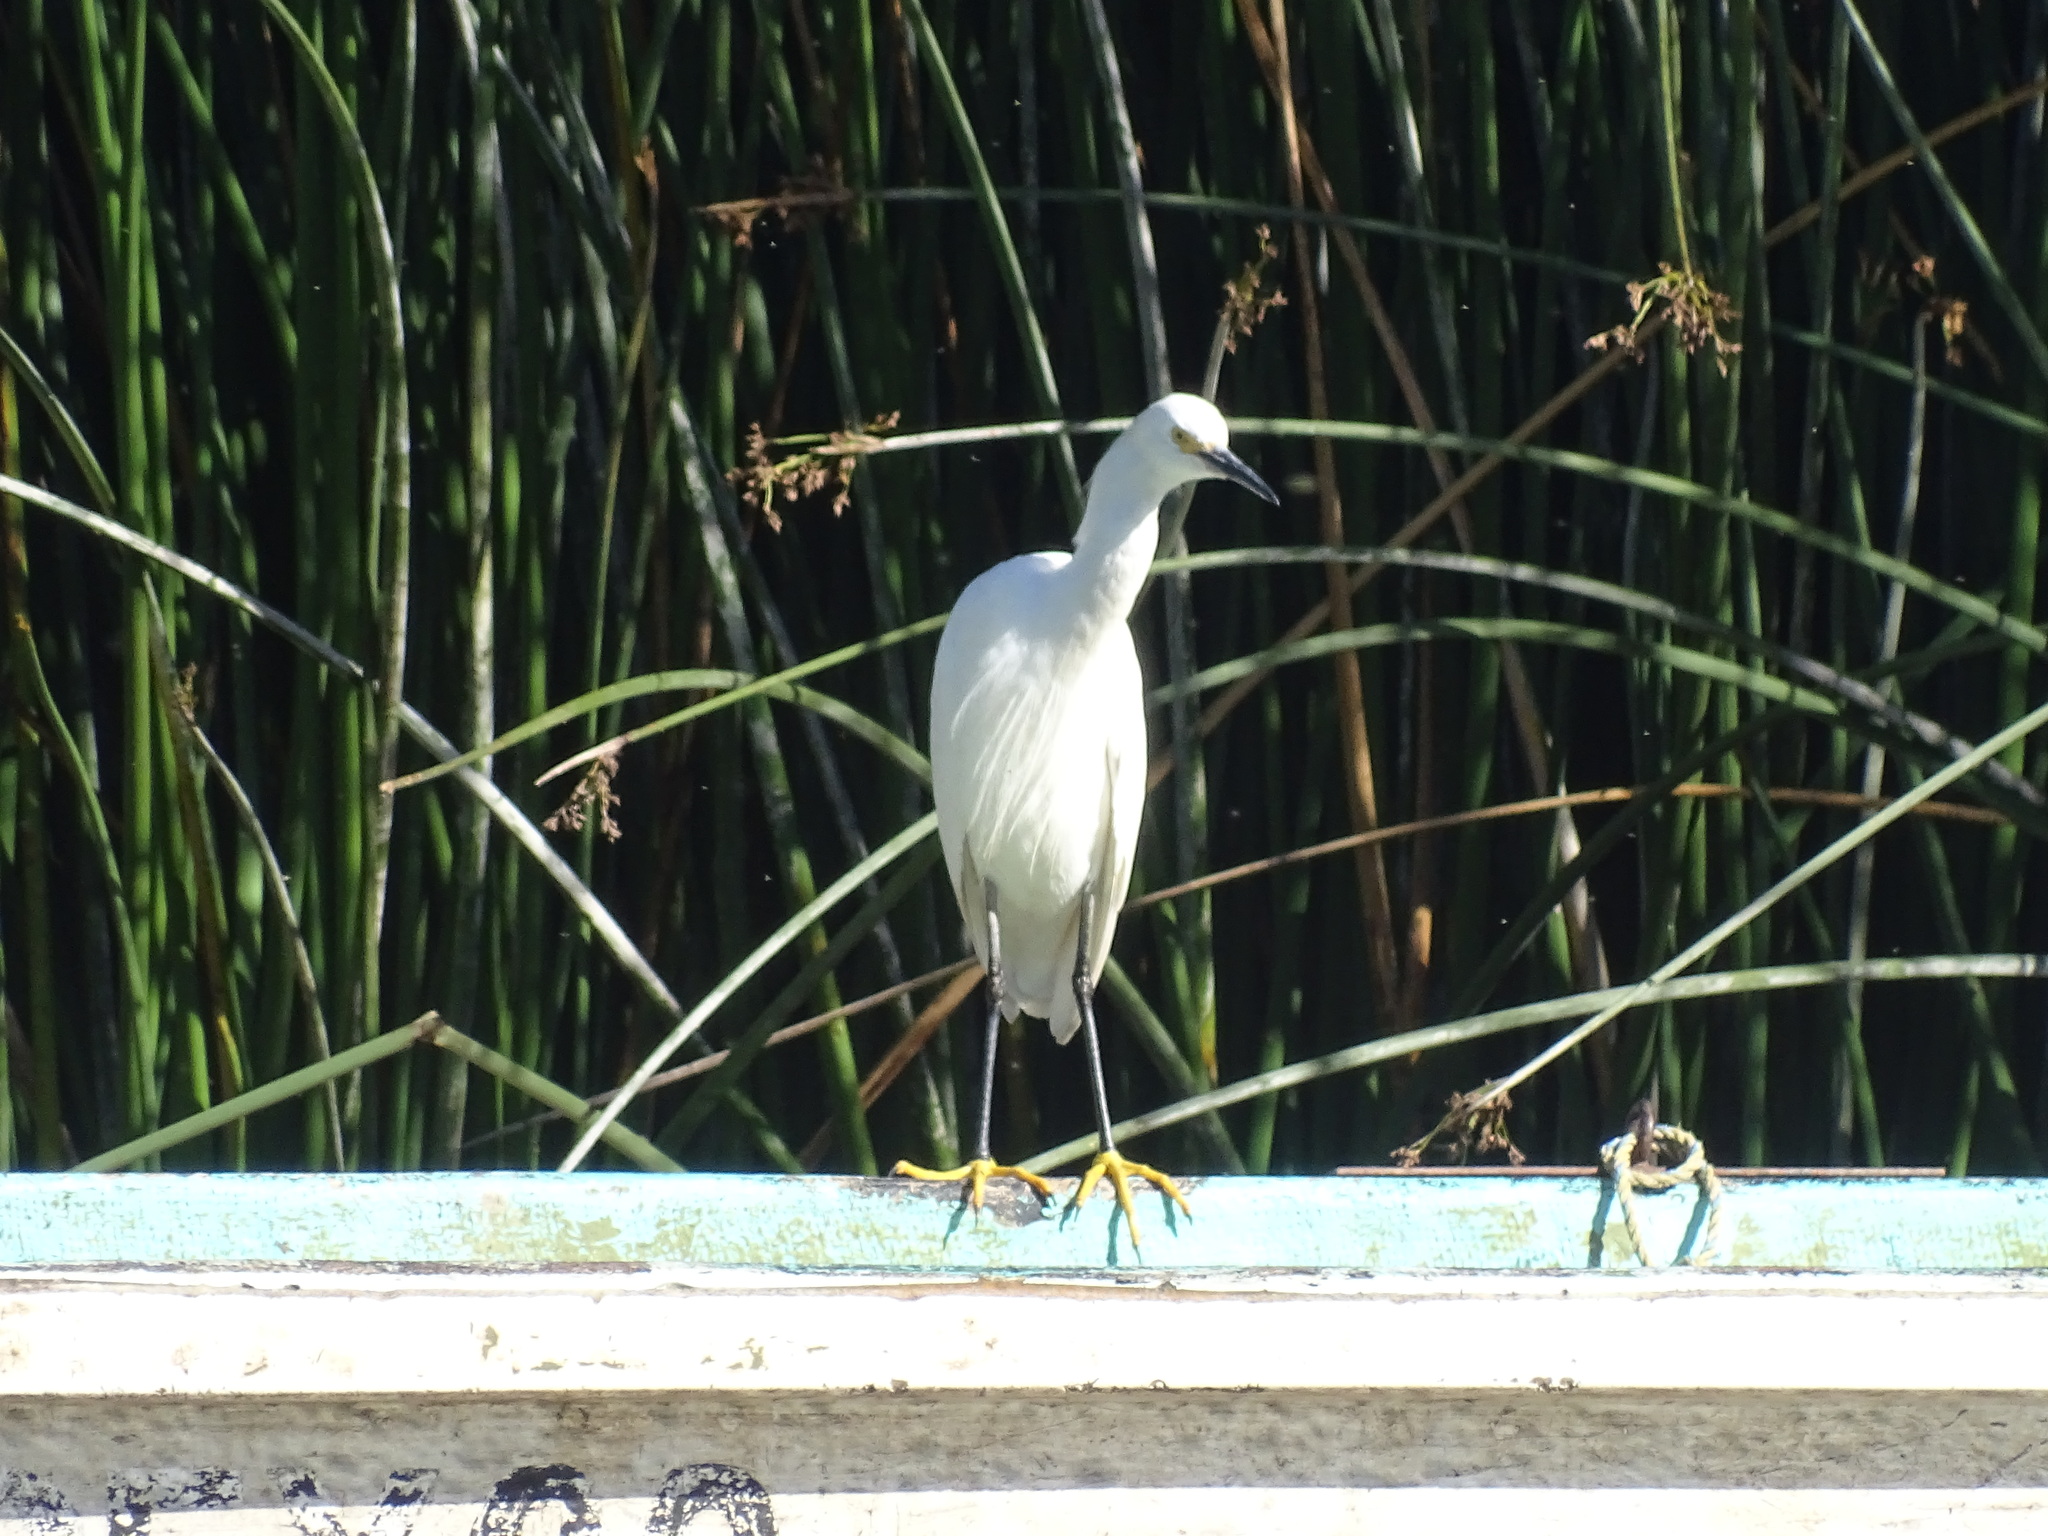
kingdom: Animalia
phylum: Chordata
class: Aves
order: Pelecaniformes
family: Ardeidae
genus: Egretta
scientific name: Egretta thula
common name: Snowy egret
